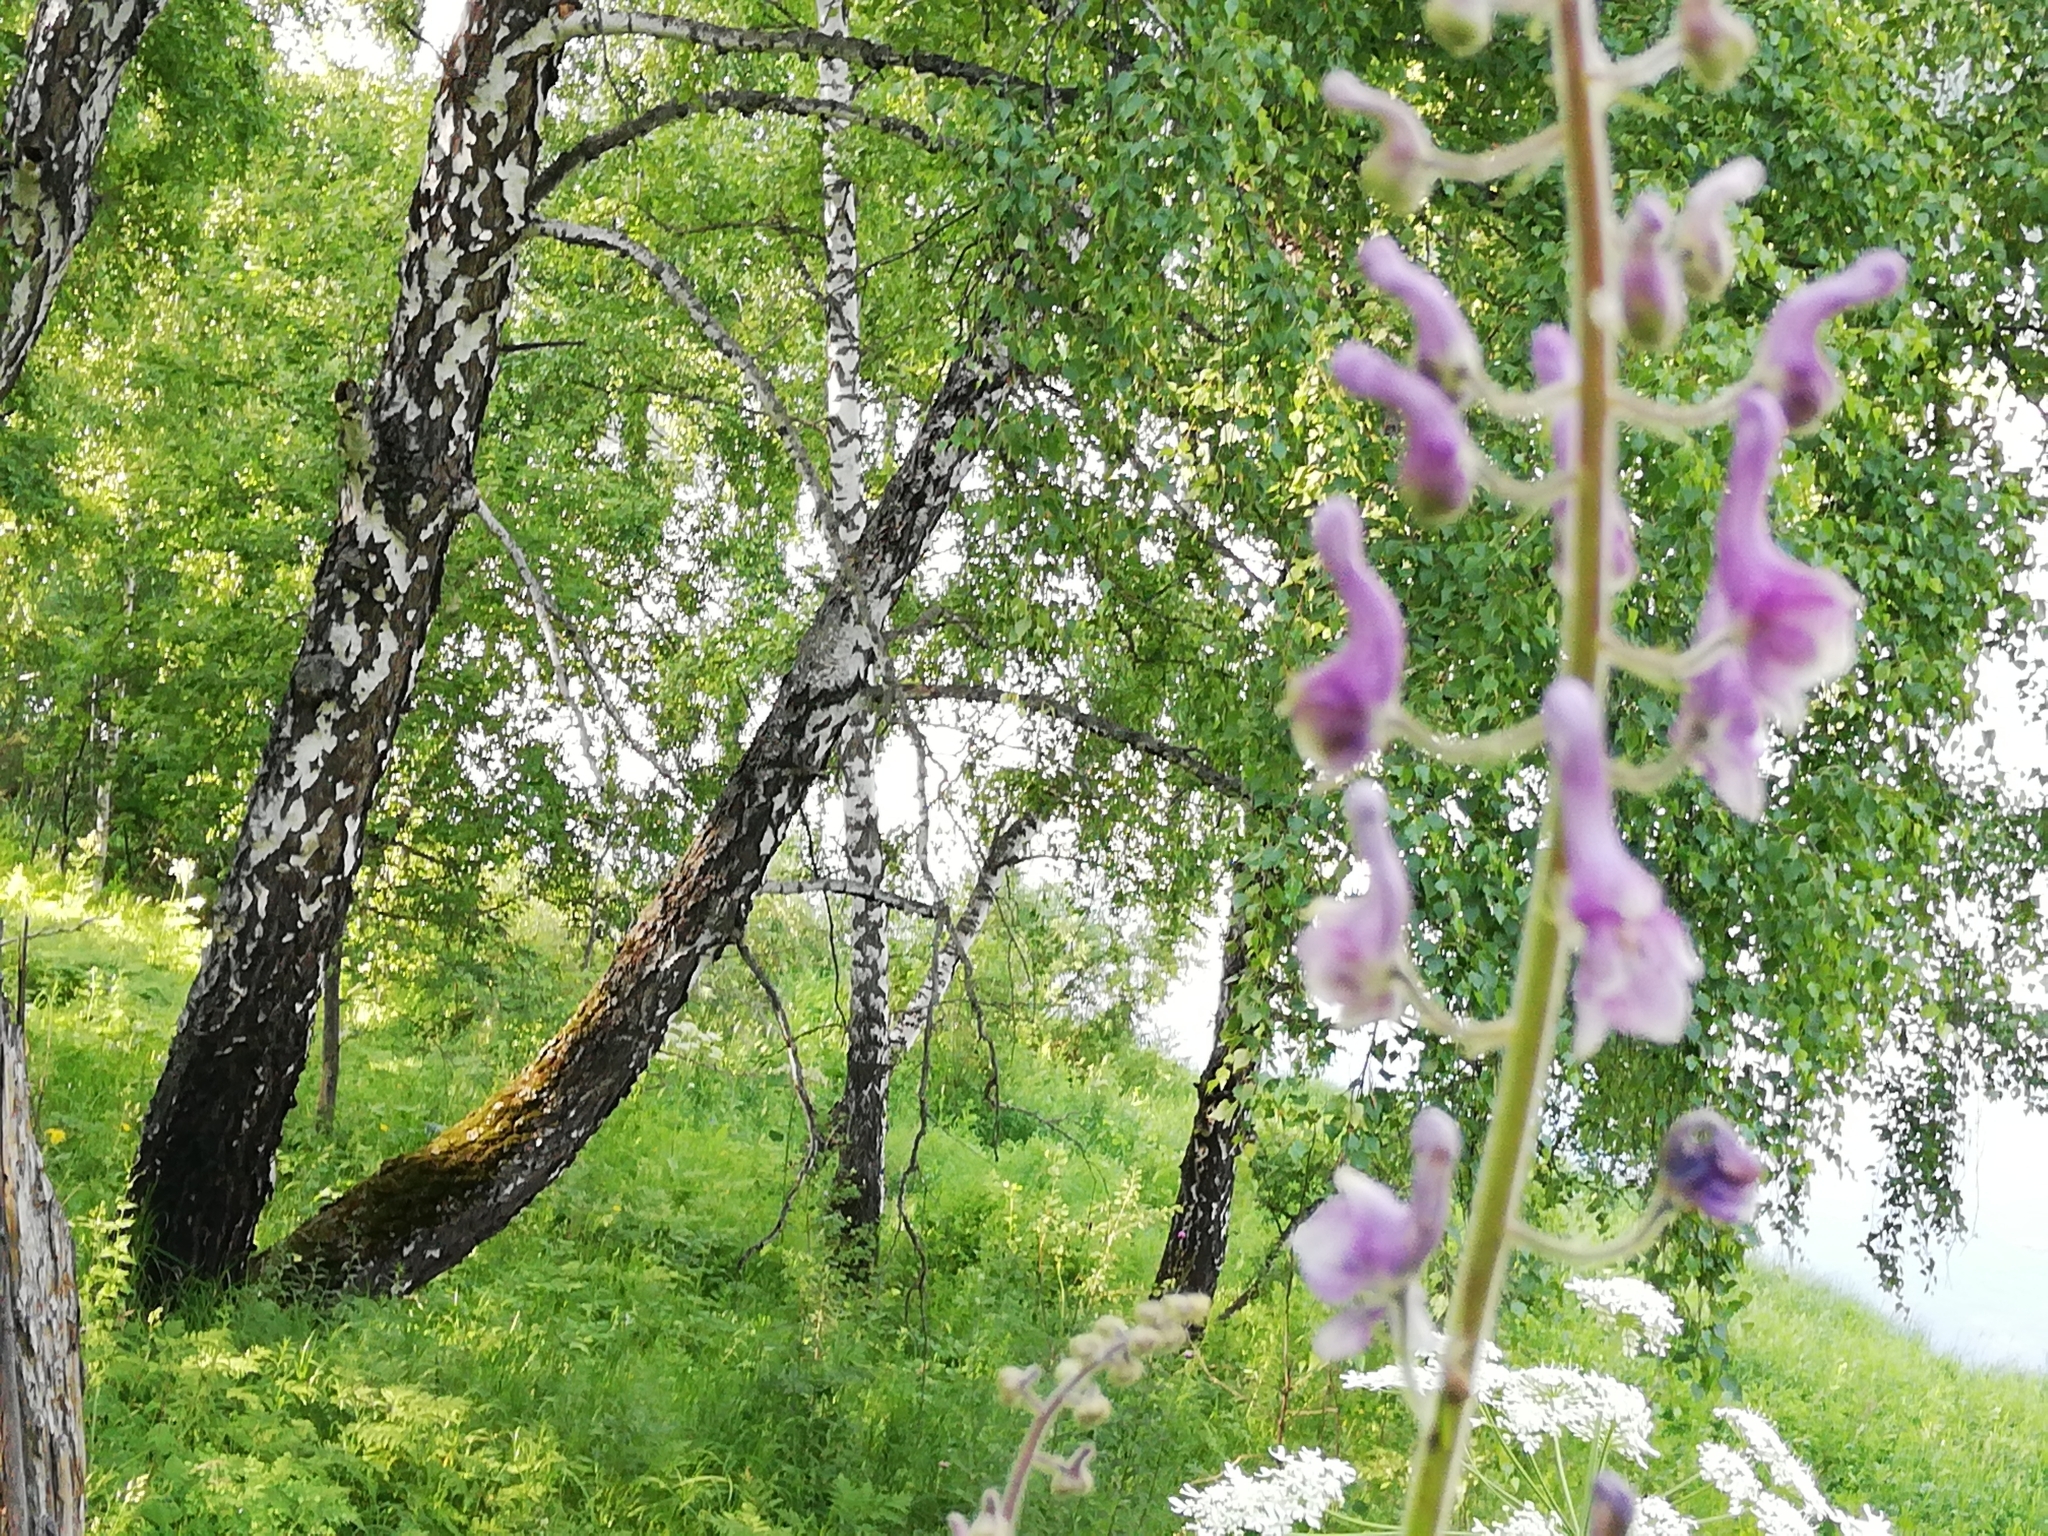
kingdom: Plantae
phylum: Tracheophyta
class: Magnoliopsida
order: Ranunculales
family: Ranunculaceae
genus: Aconitum
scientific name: Aconitum septentrionale
